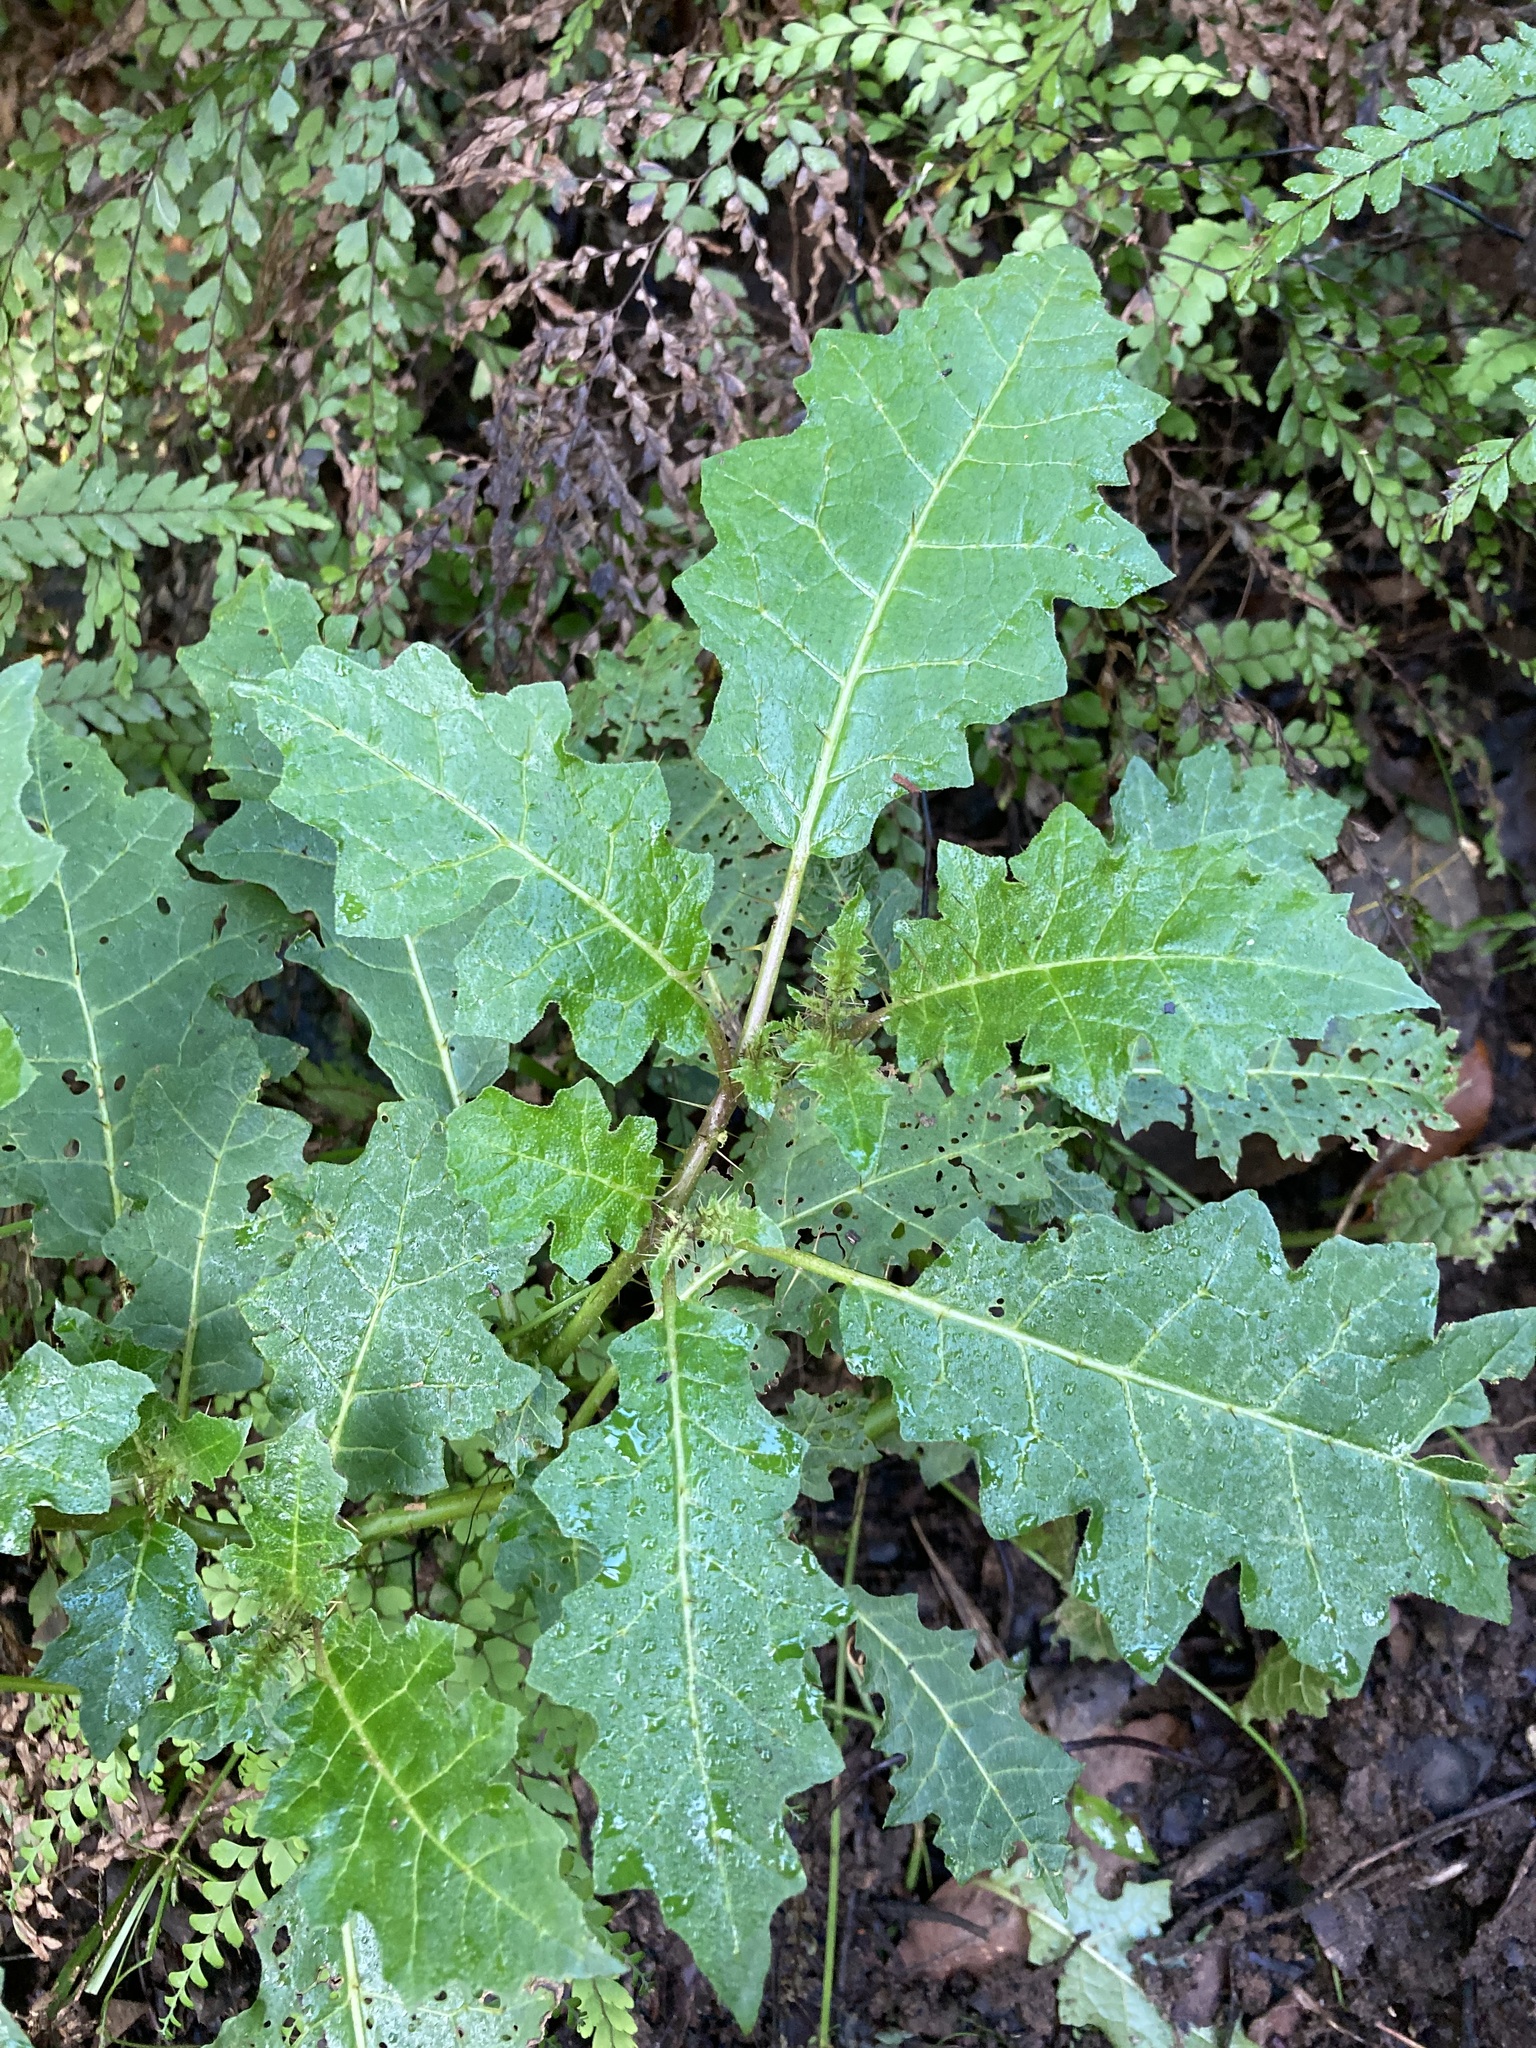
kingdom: Plantae
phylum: Tracheophyta
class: Magnoliopsida
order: Solanales
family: Solanaceae
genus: Solanum
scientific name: Solanum prinophyllum
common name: Forest nightshade
